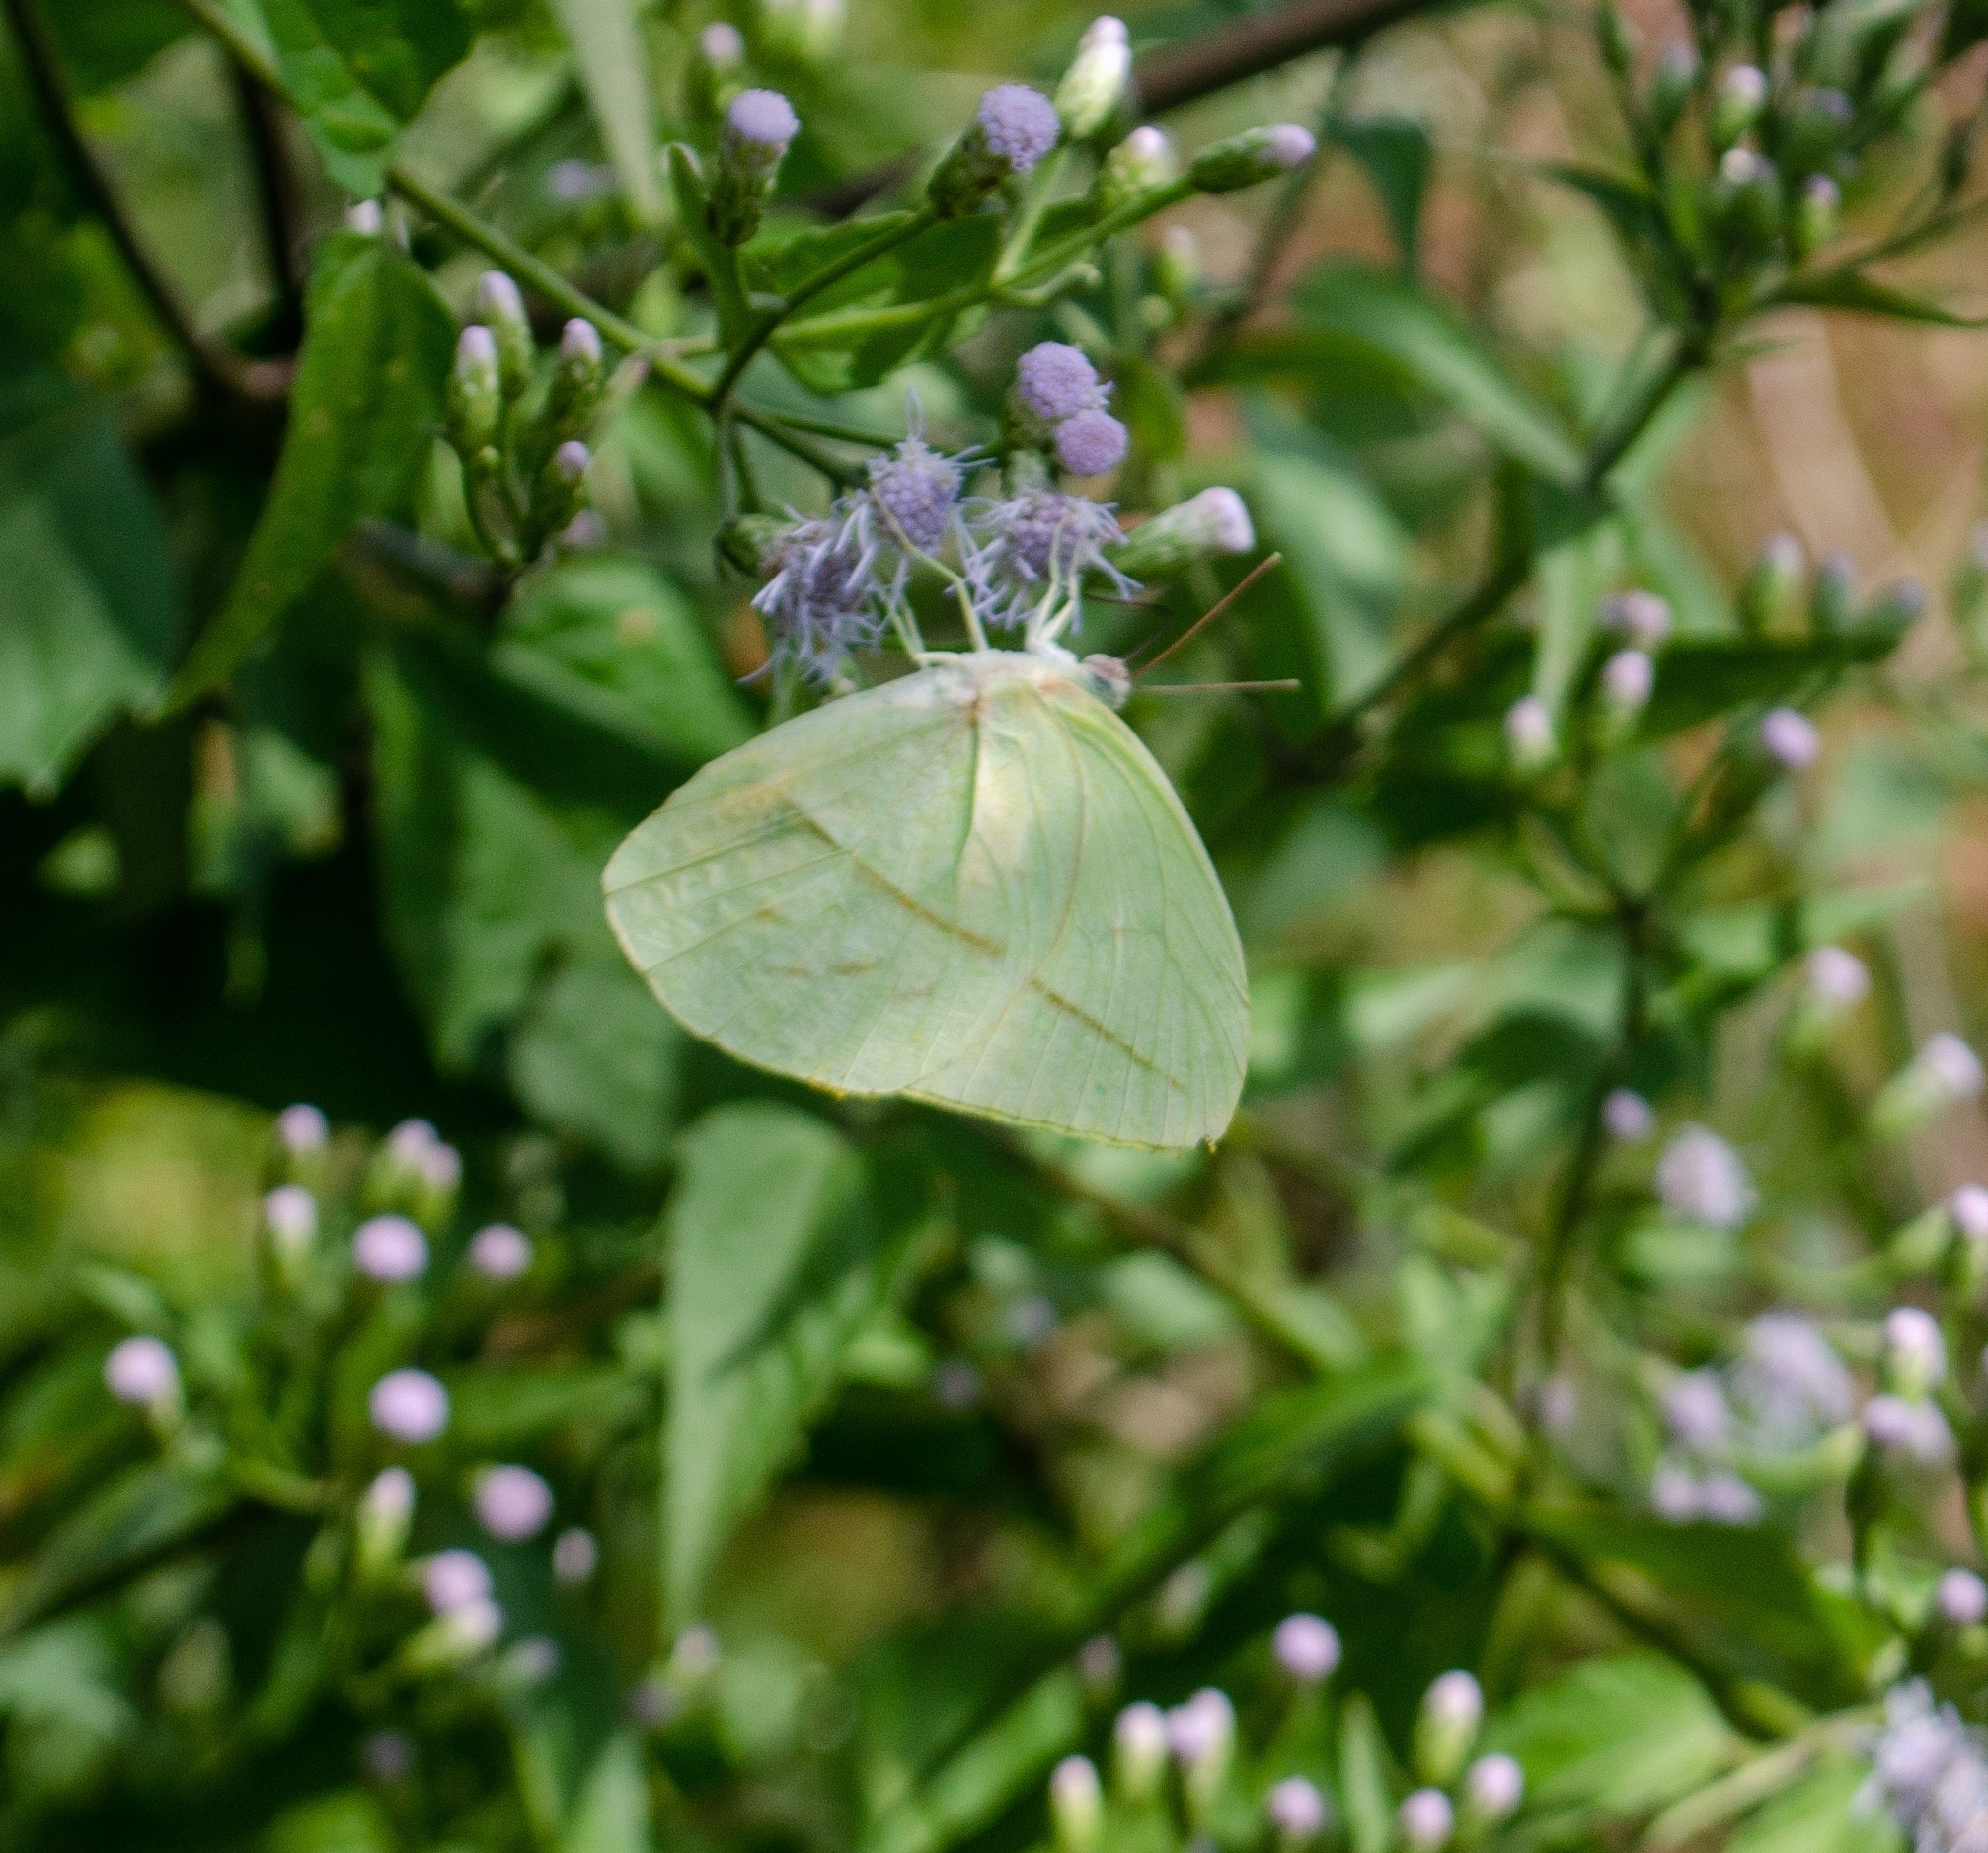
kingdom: Animalia
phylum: Arthropoda
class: Insecta
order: Lepidoptera
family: Pieridae
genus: Rhabdodryas
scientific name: Rhabdodryas trite
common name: Straight-lined sulphur
